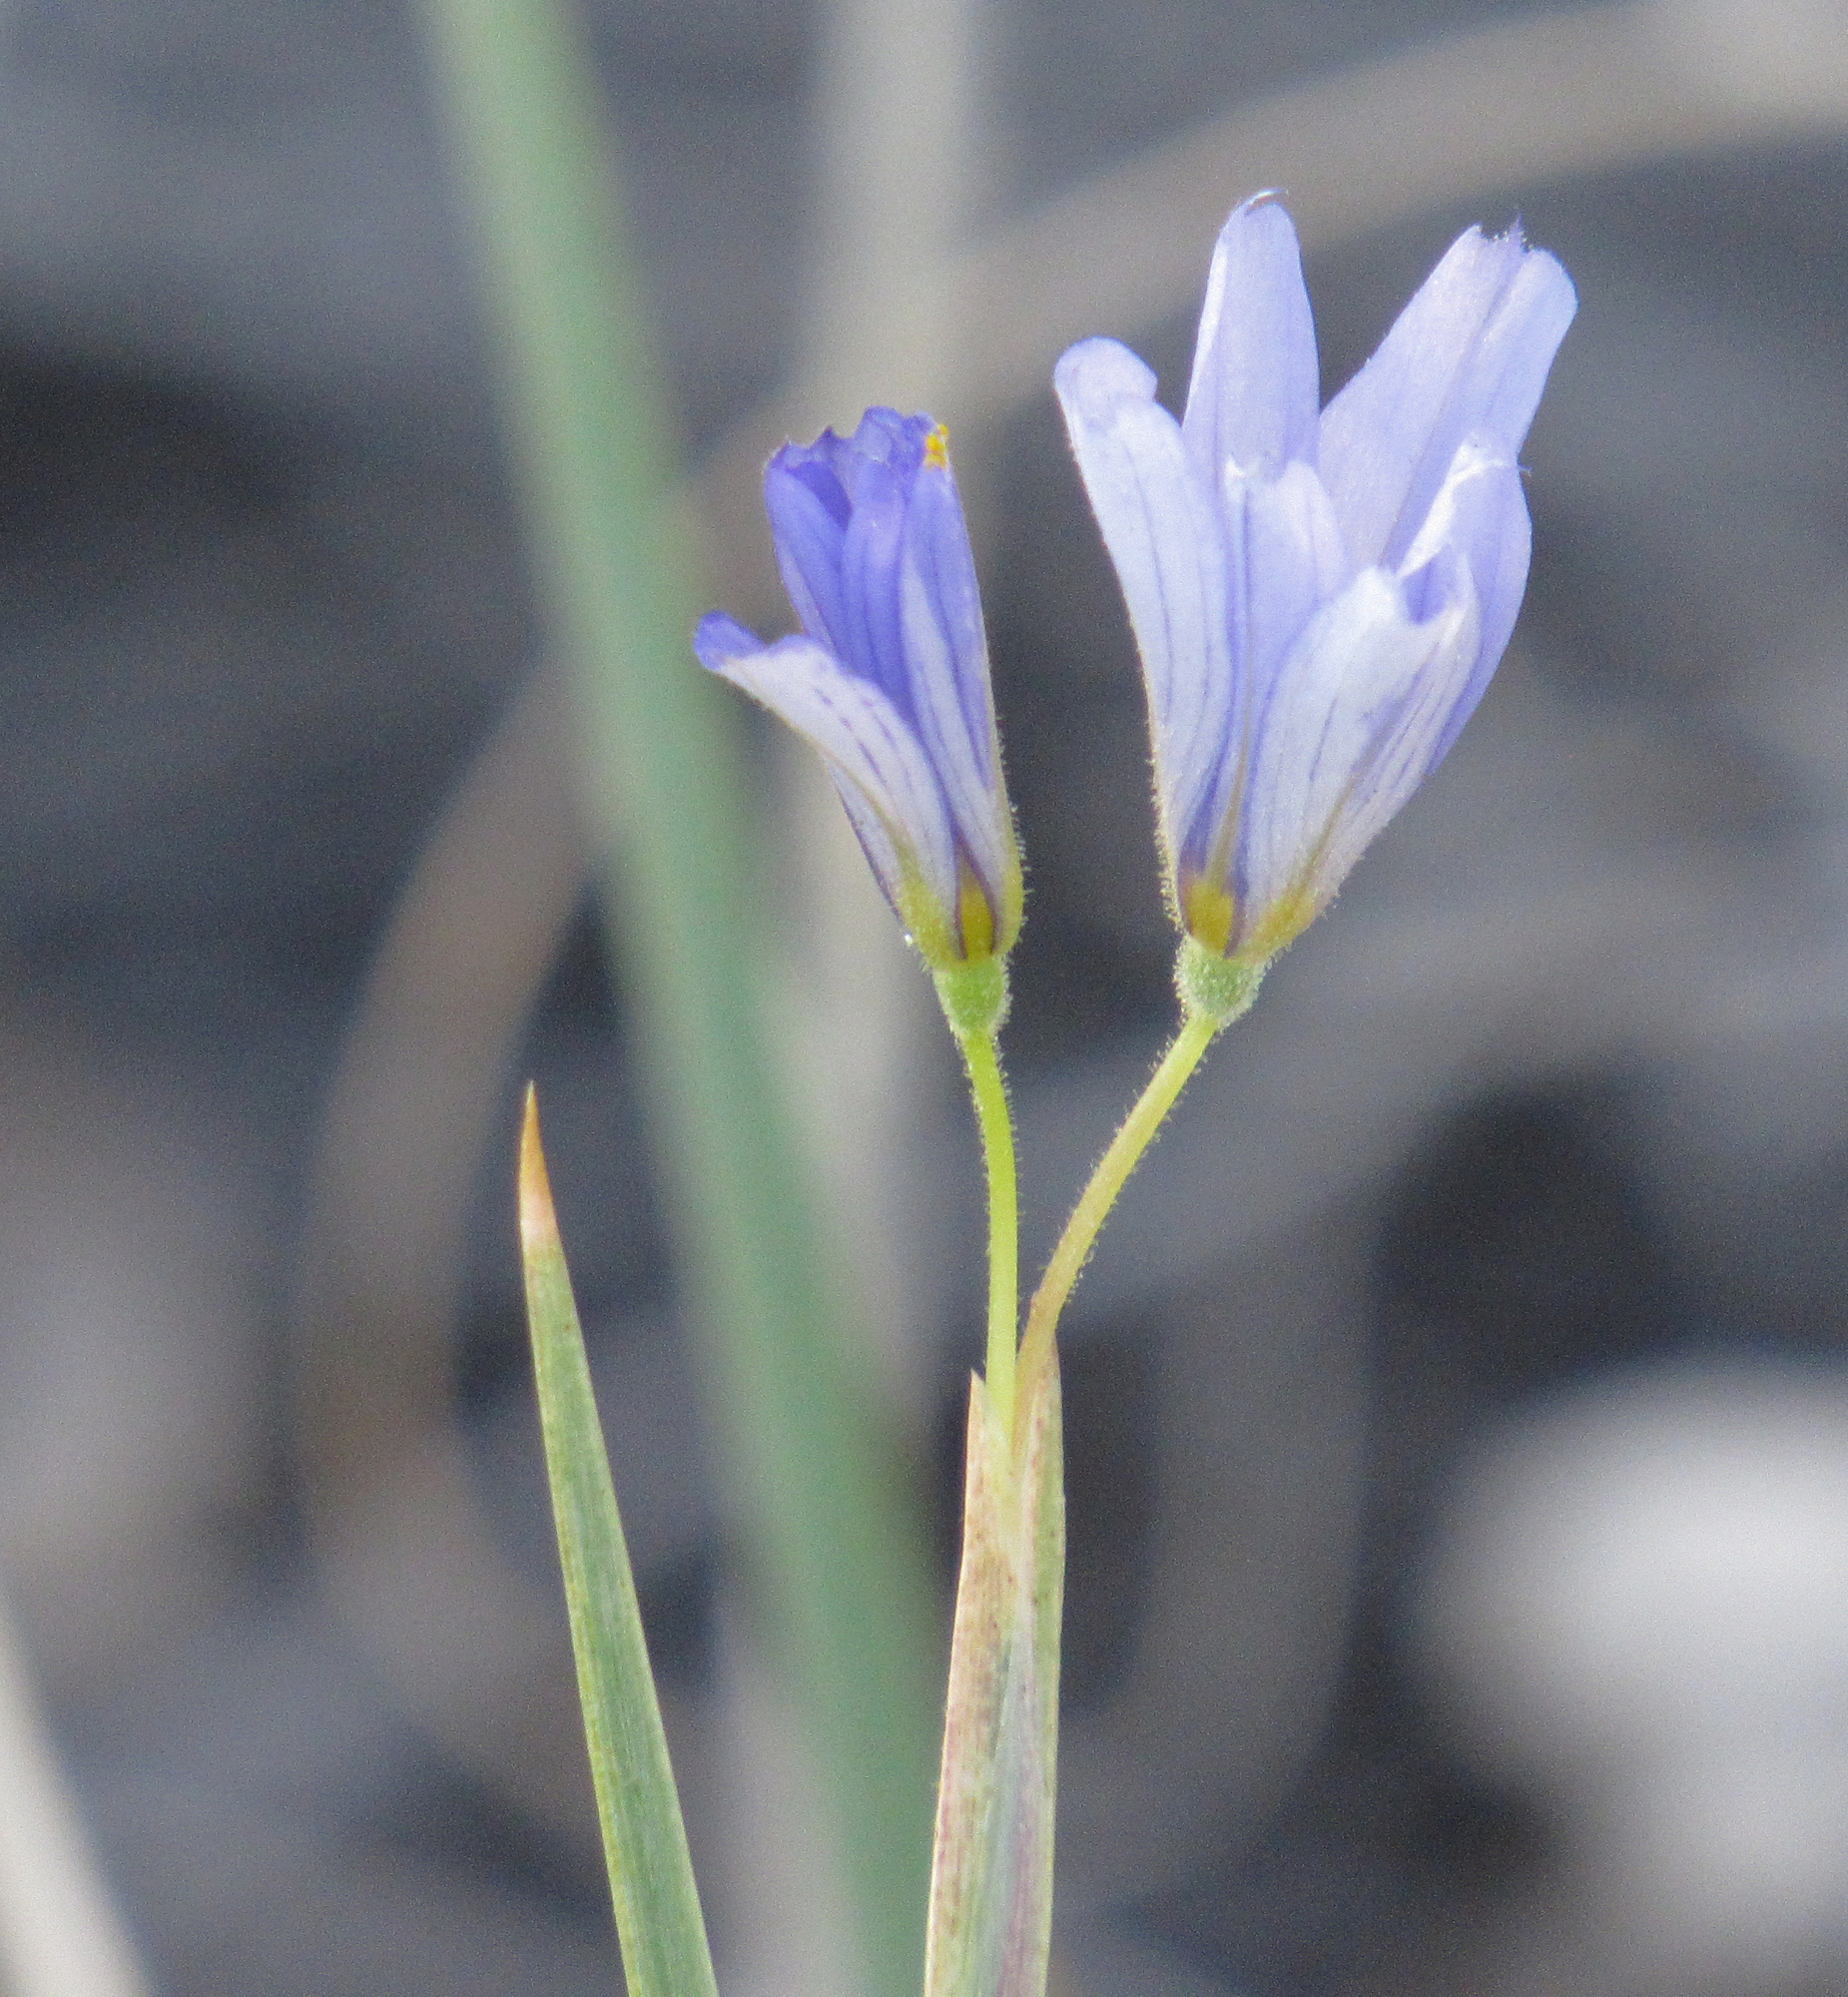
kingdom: Plantae
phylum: Tracheophyta
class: Liliopsida
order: Asparagales
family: Iridaceae
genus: Sisyrinchium
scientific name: Sisyrinchium funereum
